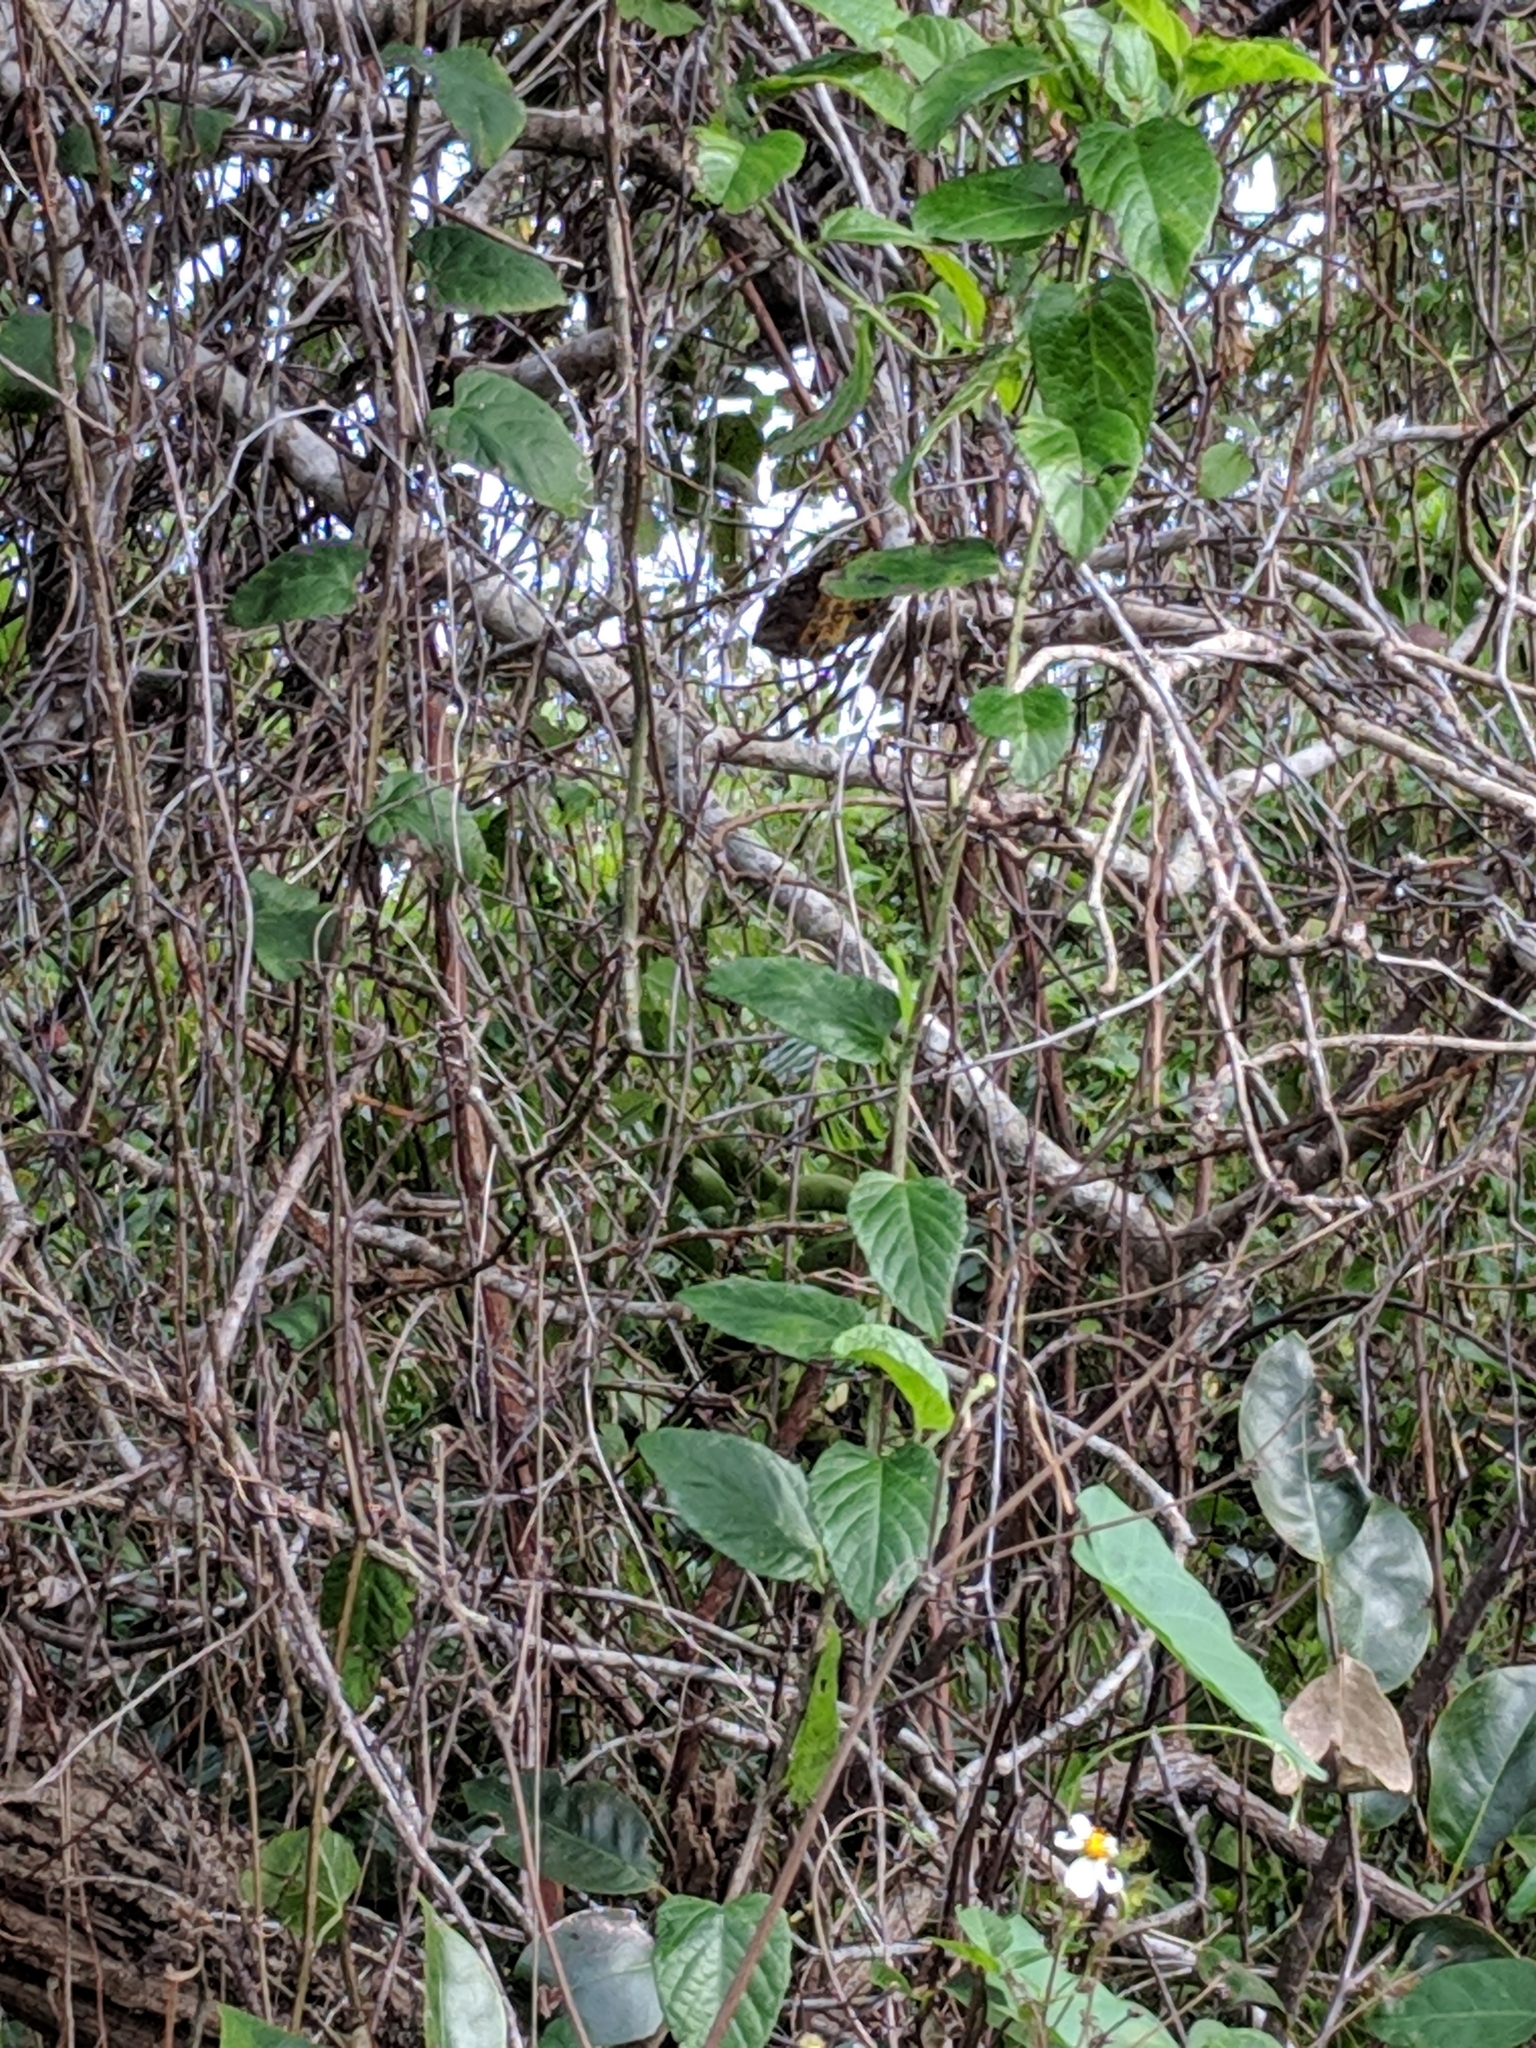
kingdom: Plantae
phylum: Tracheophyta
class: Magnoliopsida
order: Vitales
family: Vitaceae
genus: Cissus
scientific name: Cissus verticillata
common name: Princess vine
